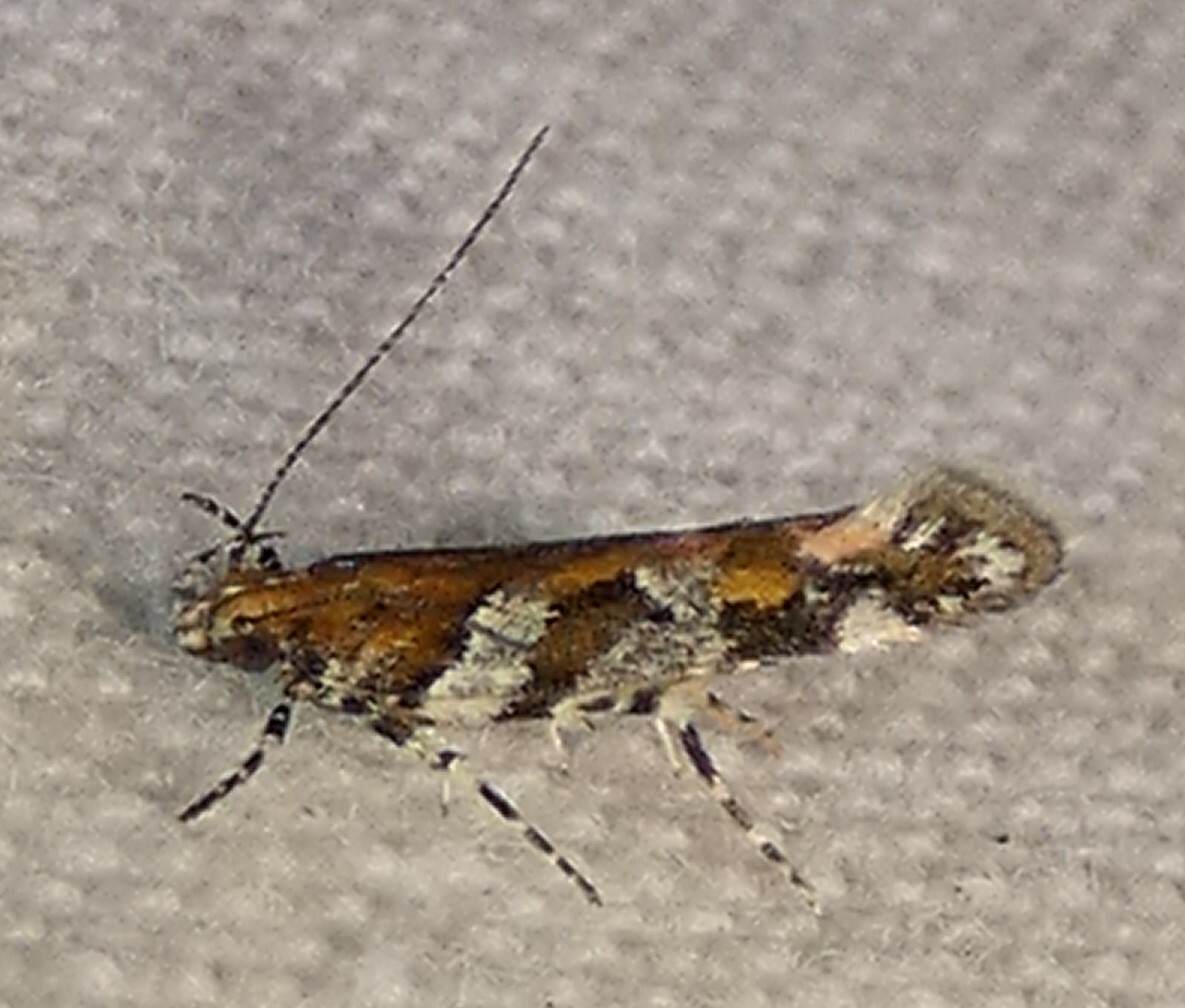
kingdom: Animalia
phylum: Arthropoda
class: Insecta
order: Lepidoptera
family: Gelechiidae
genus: Aristotelia
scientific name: Aristotelia roseosuffusella
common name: Pink-washed aristotelia moth
